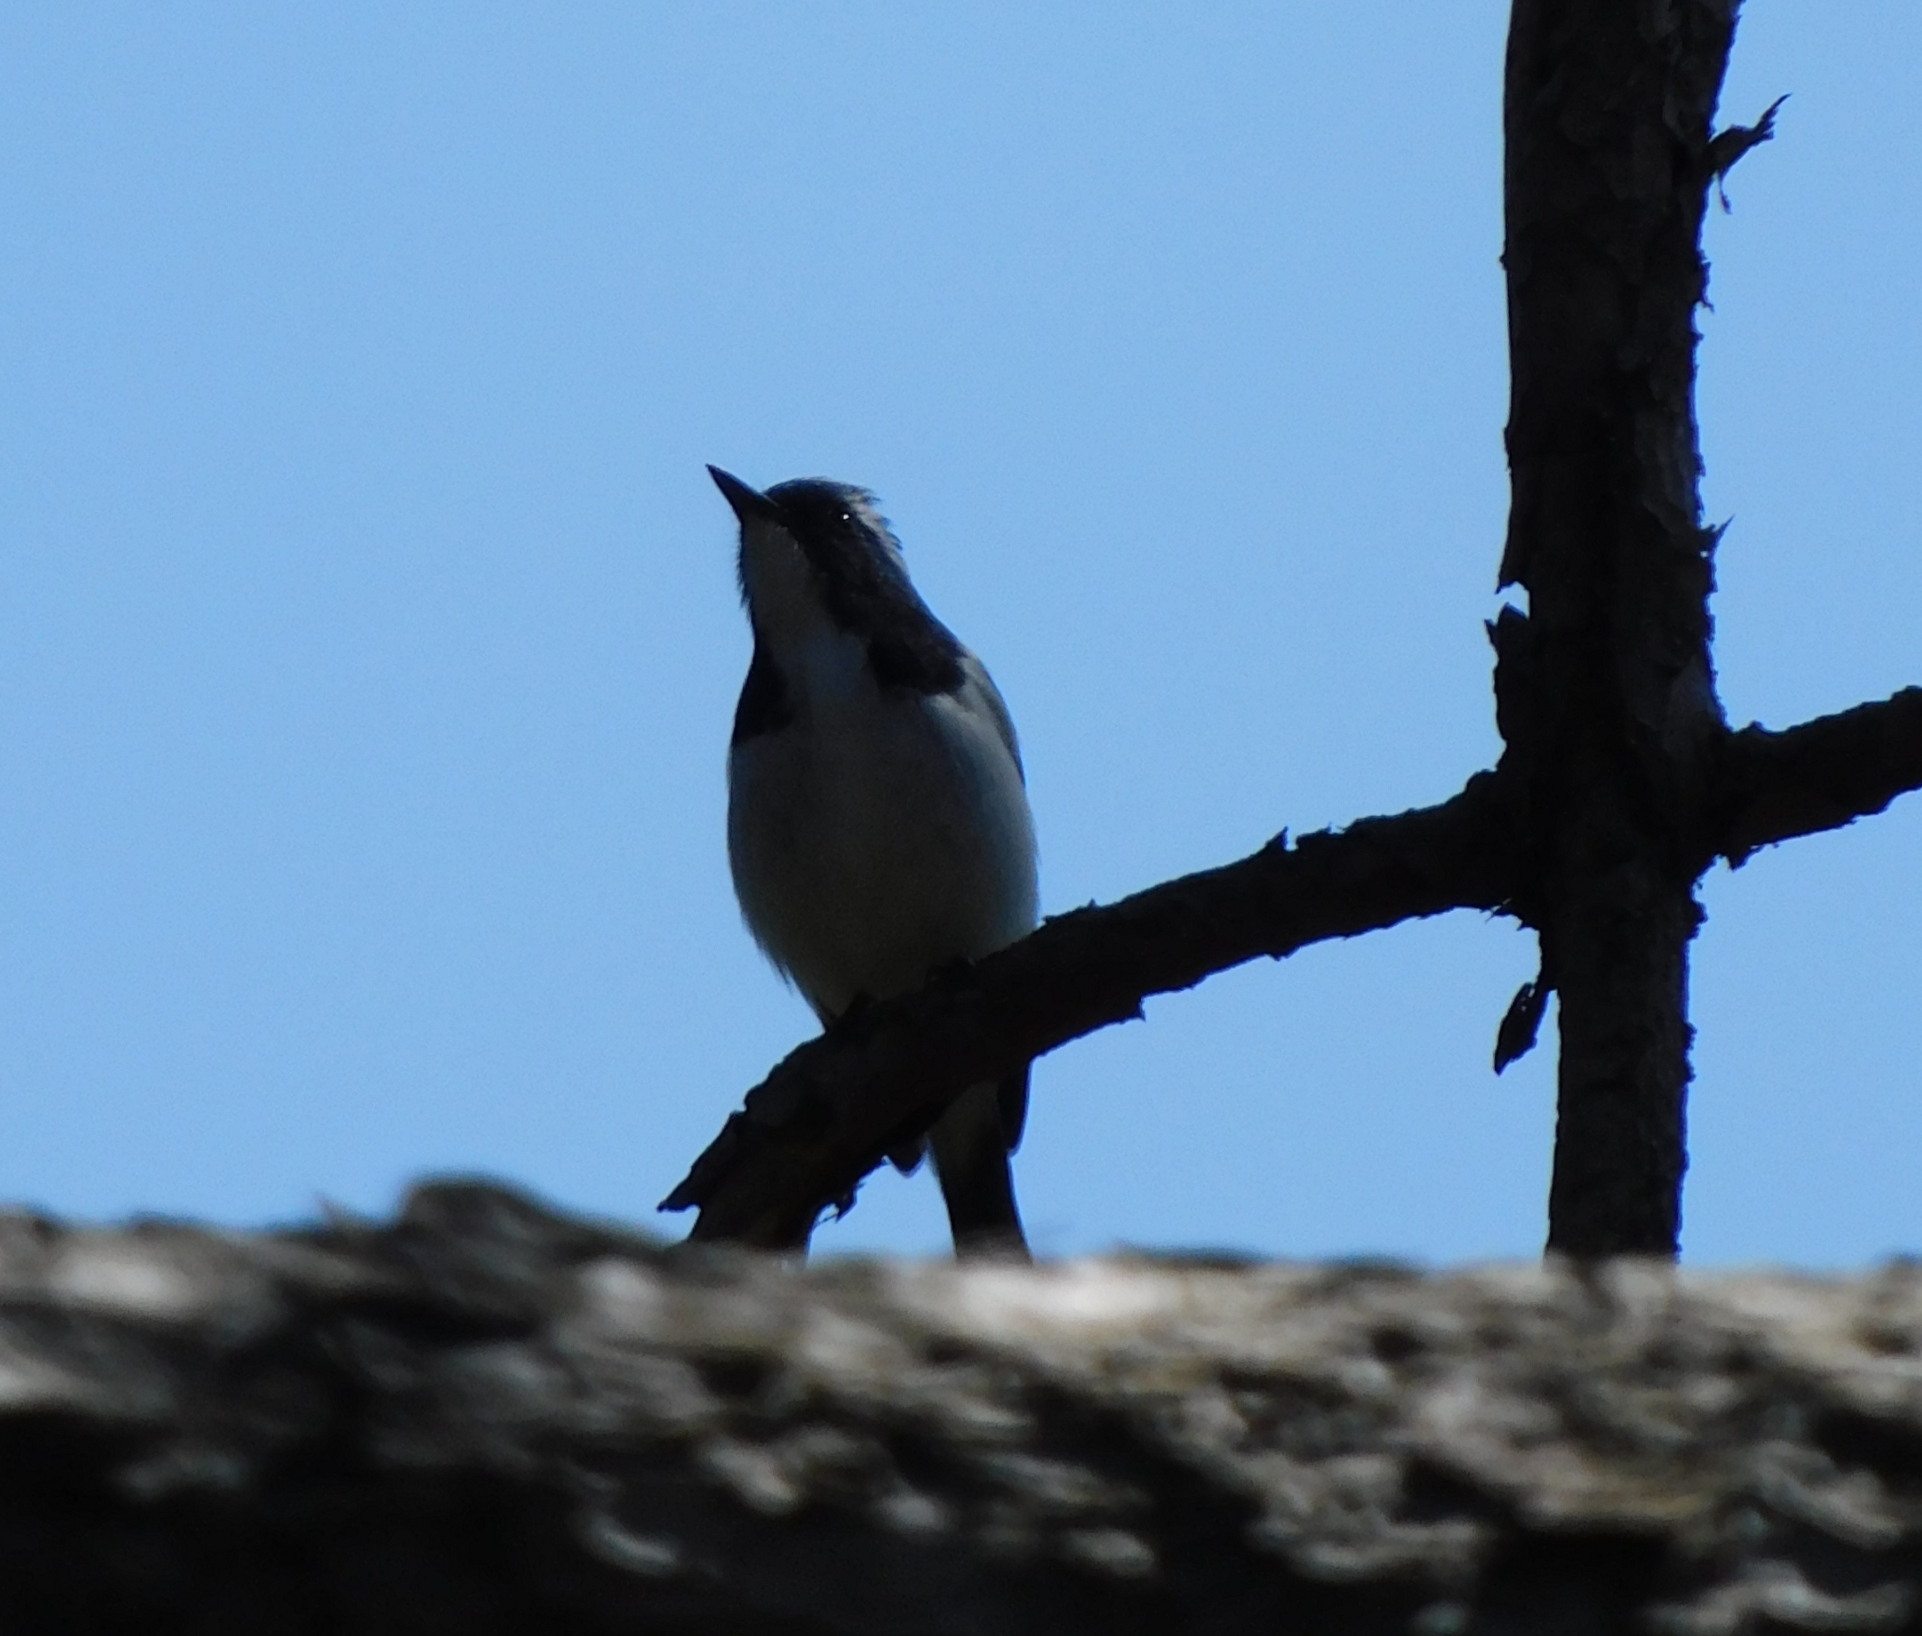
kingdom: Animalia
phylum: Chordata
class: Aves
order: Passeriformes
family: Muscicapidae
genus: Ficedula
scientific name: Ficedula superciliaris
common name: Ultramarine flycatcher
